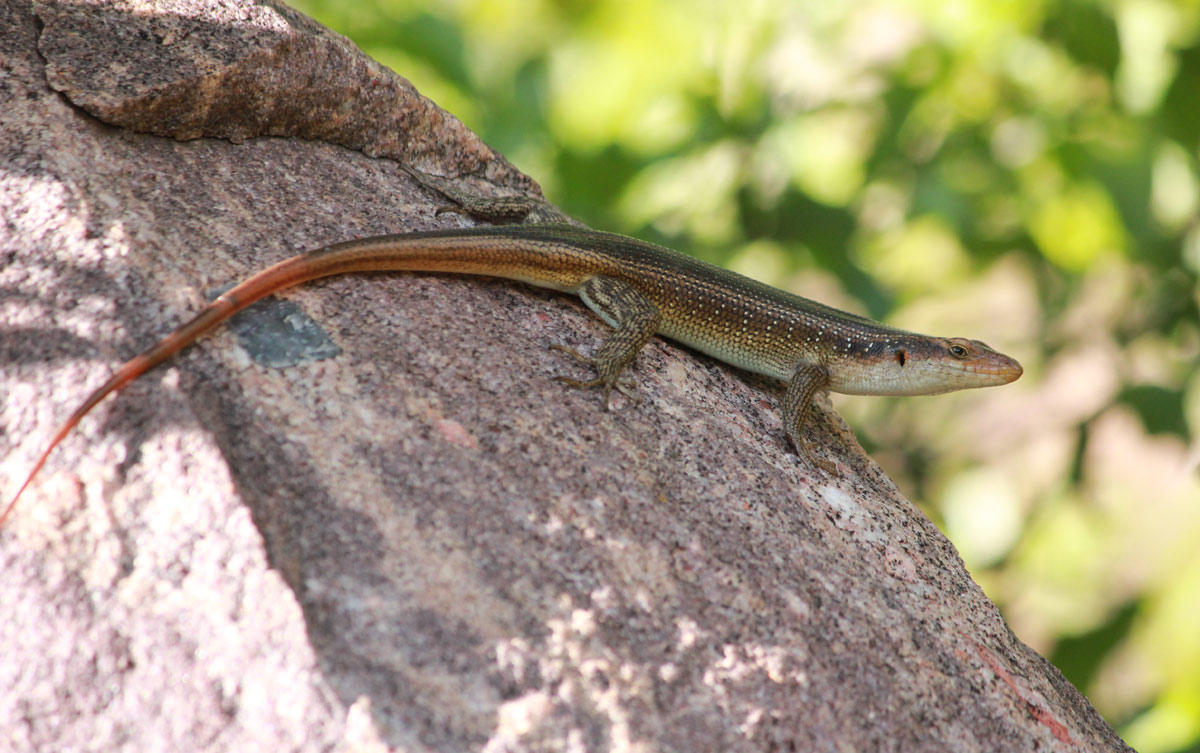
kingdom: Animalia
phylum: Chordata
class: Squamata
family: Scincidae
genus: Trachylepis
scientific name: Trachylepis margaritifera
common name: Rainbow skink
